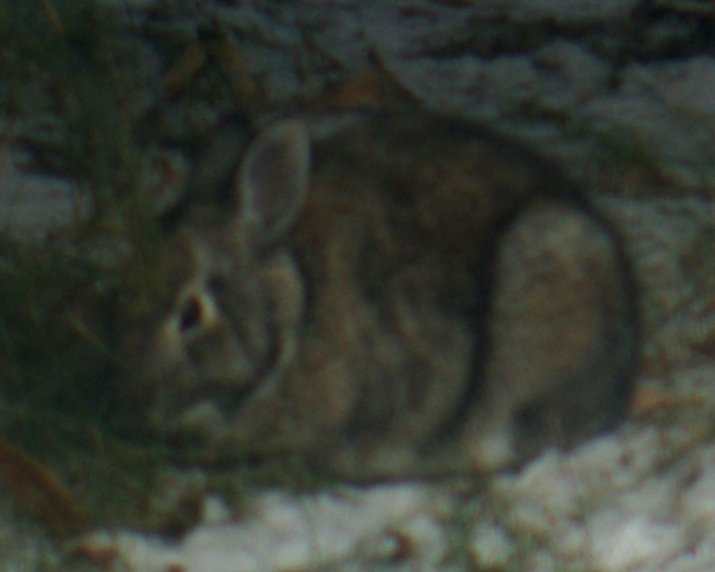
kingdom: Animalia
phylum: Chordata
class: Mammalia
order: Lagomorpha
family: Leporidae
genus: Sylvilagus
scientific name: Sylvilagus floridanus
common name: Eastern cottontail
